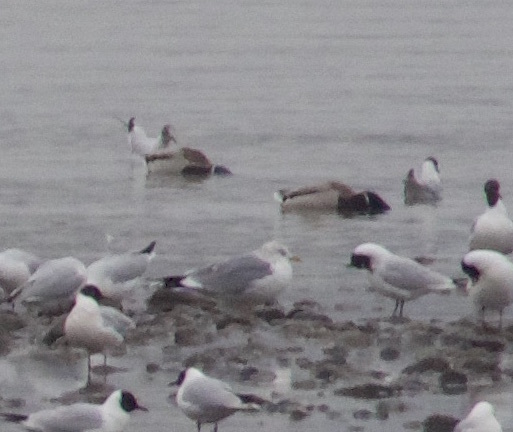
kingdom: Animalia
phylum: Chordata
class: Aves
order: Charadriiformes
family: Laridae
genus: Larus
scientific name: Larus canus
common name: Mew gull
